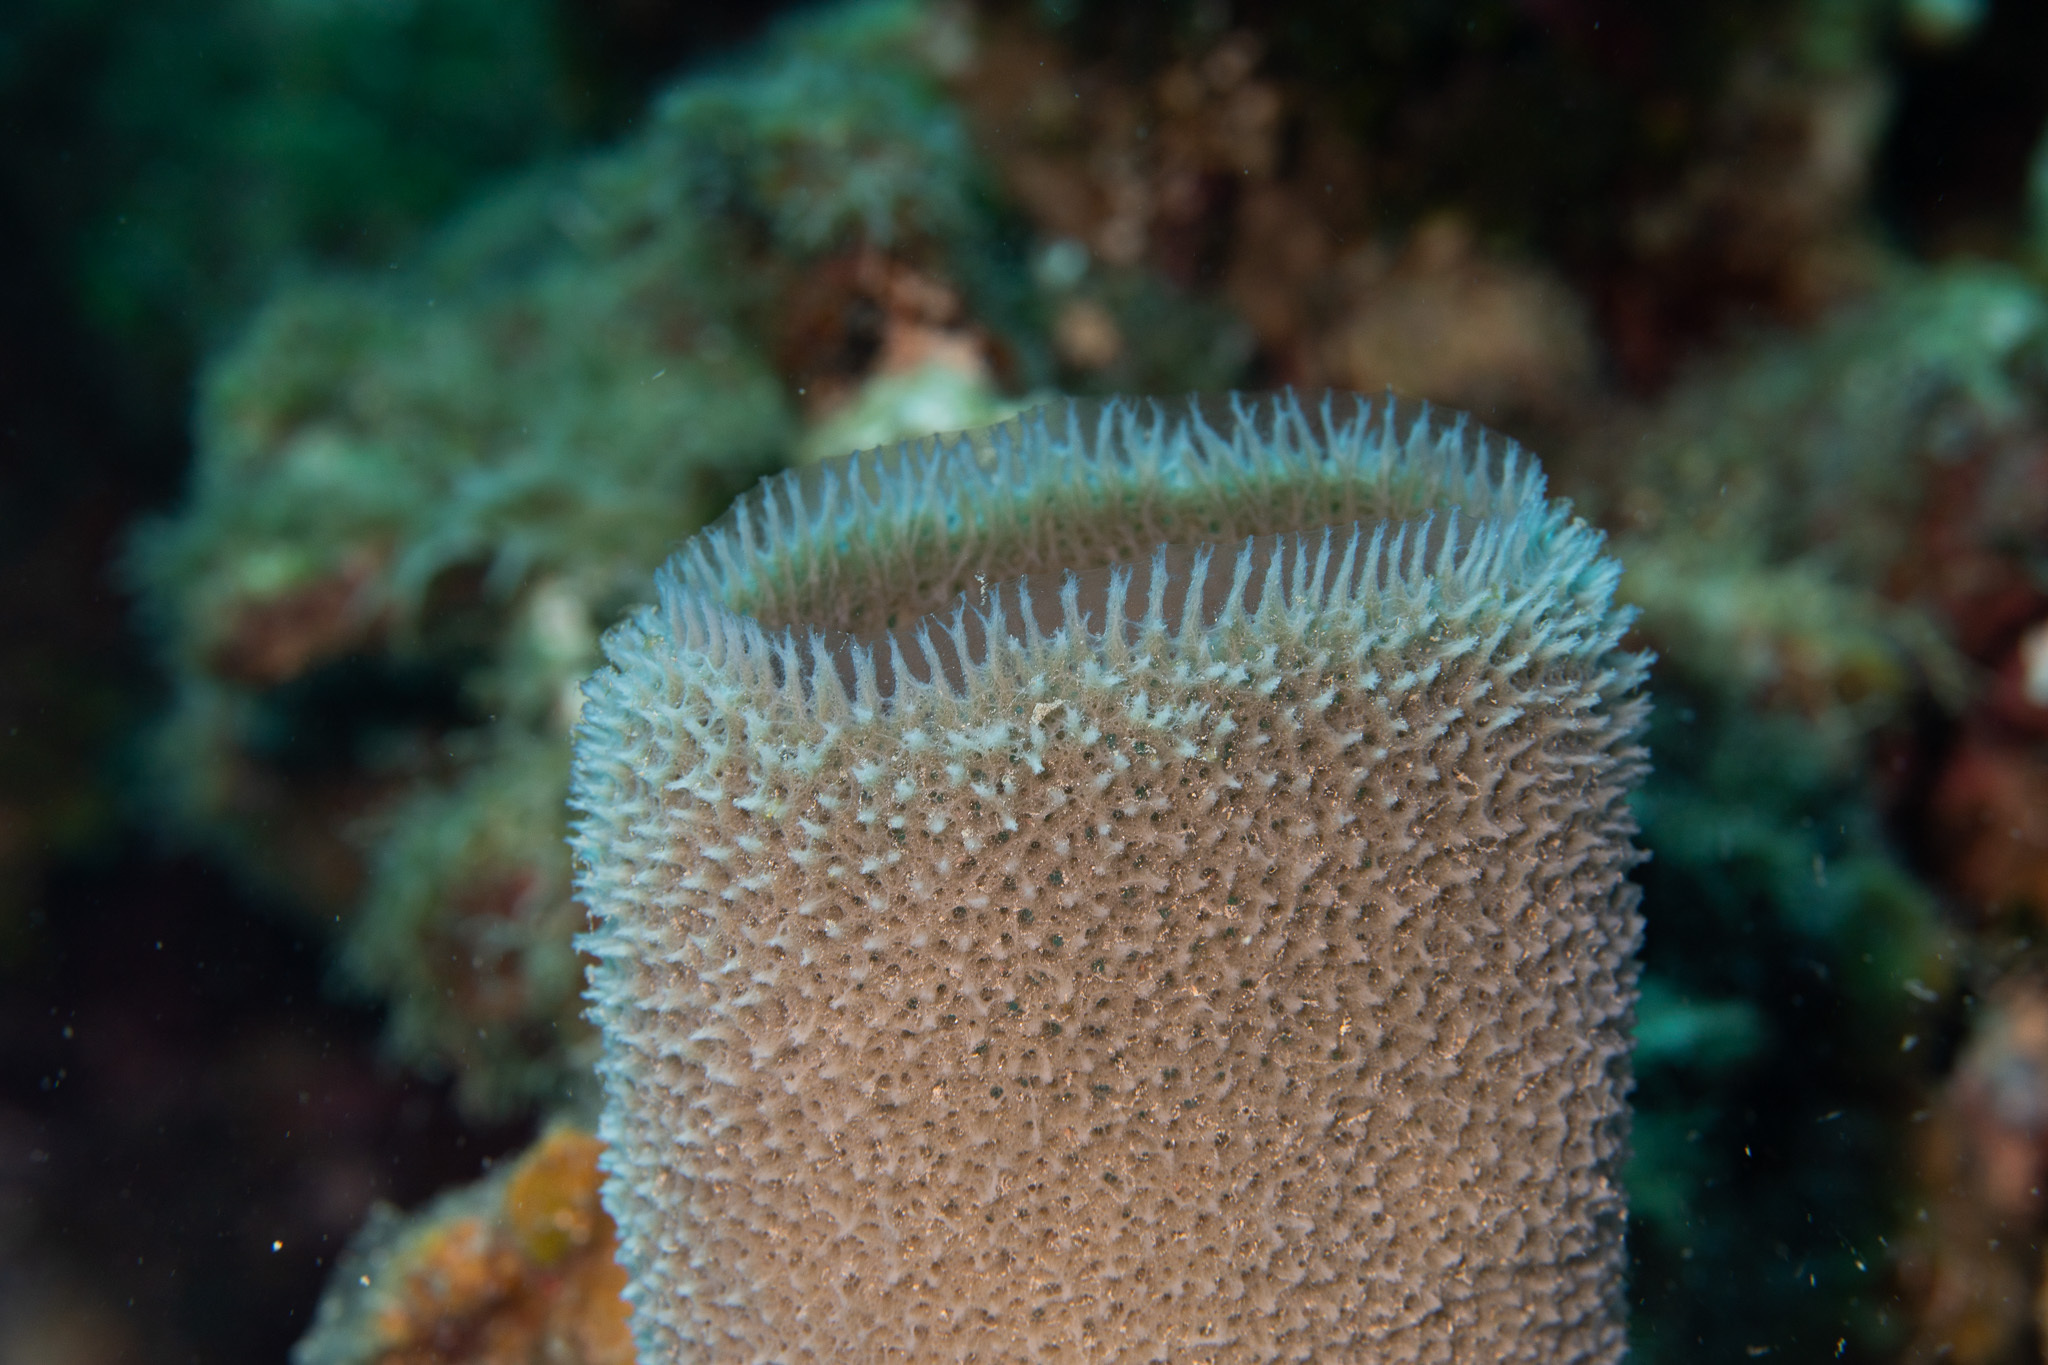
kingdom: Animalia
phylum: Porifera
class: Demospongiae
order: Haplosclerida
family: Niphatidae
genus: Niphates
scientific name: Niphates digitalis
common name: Pink vase sponge
